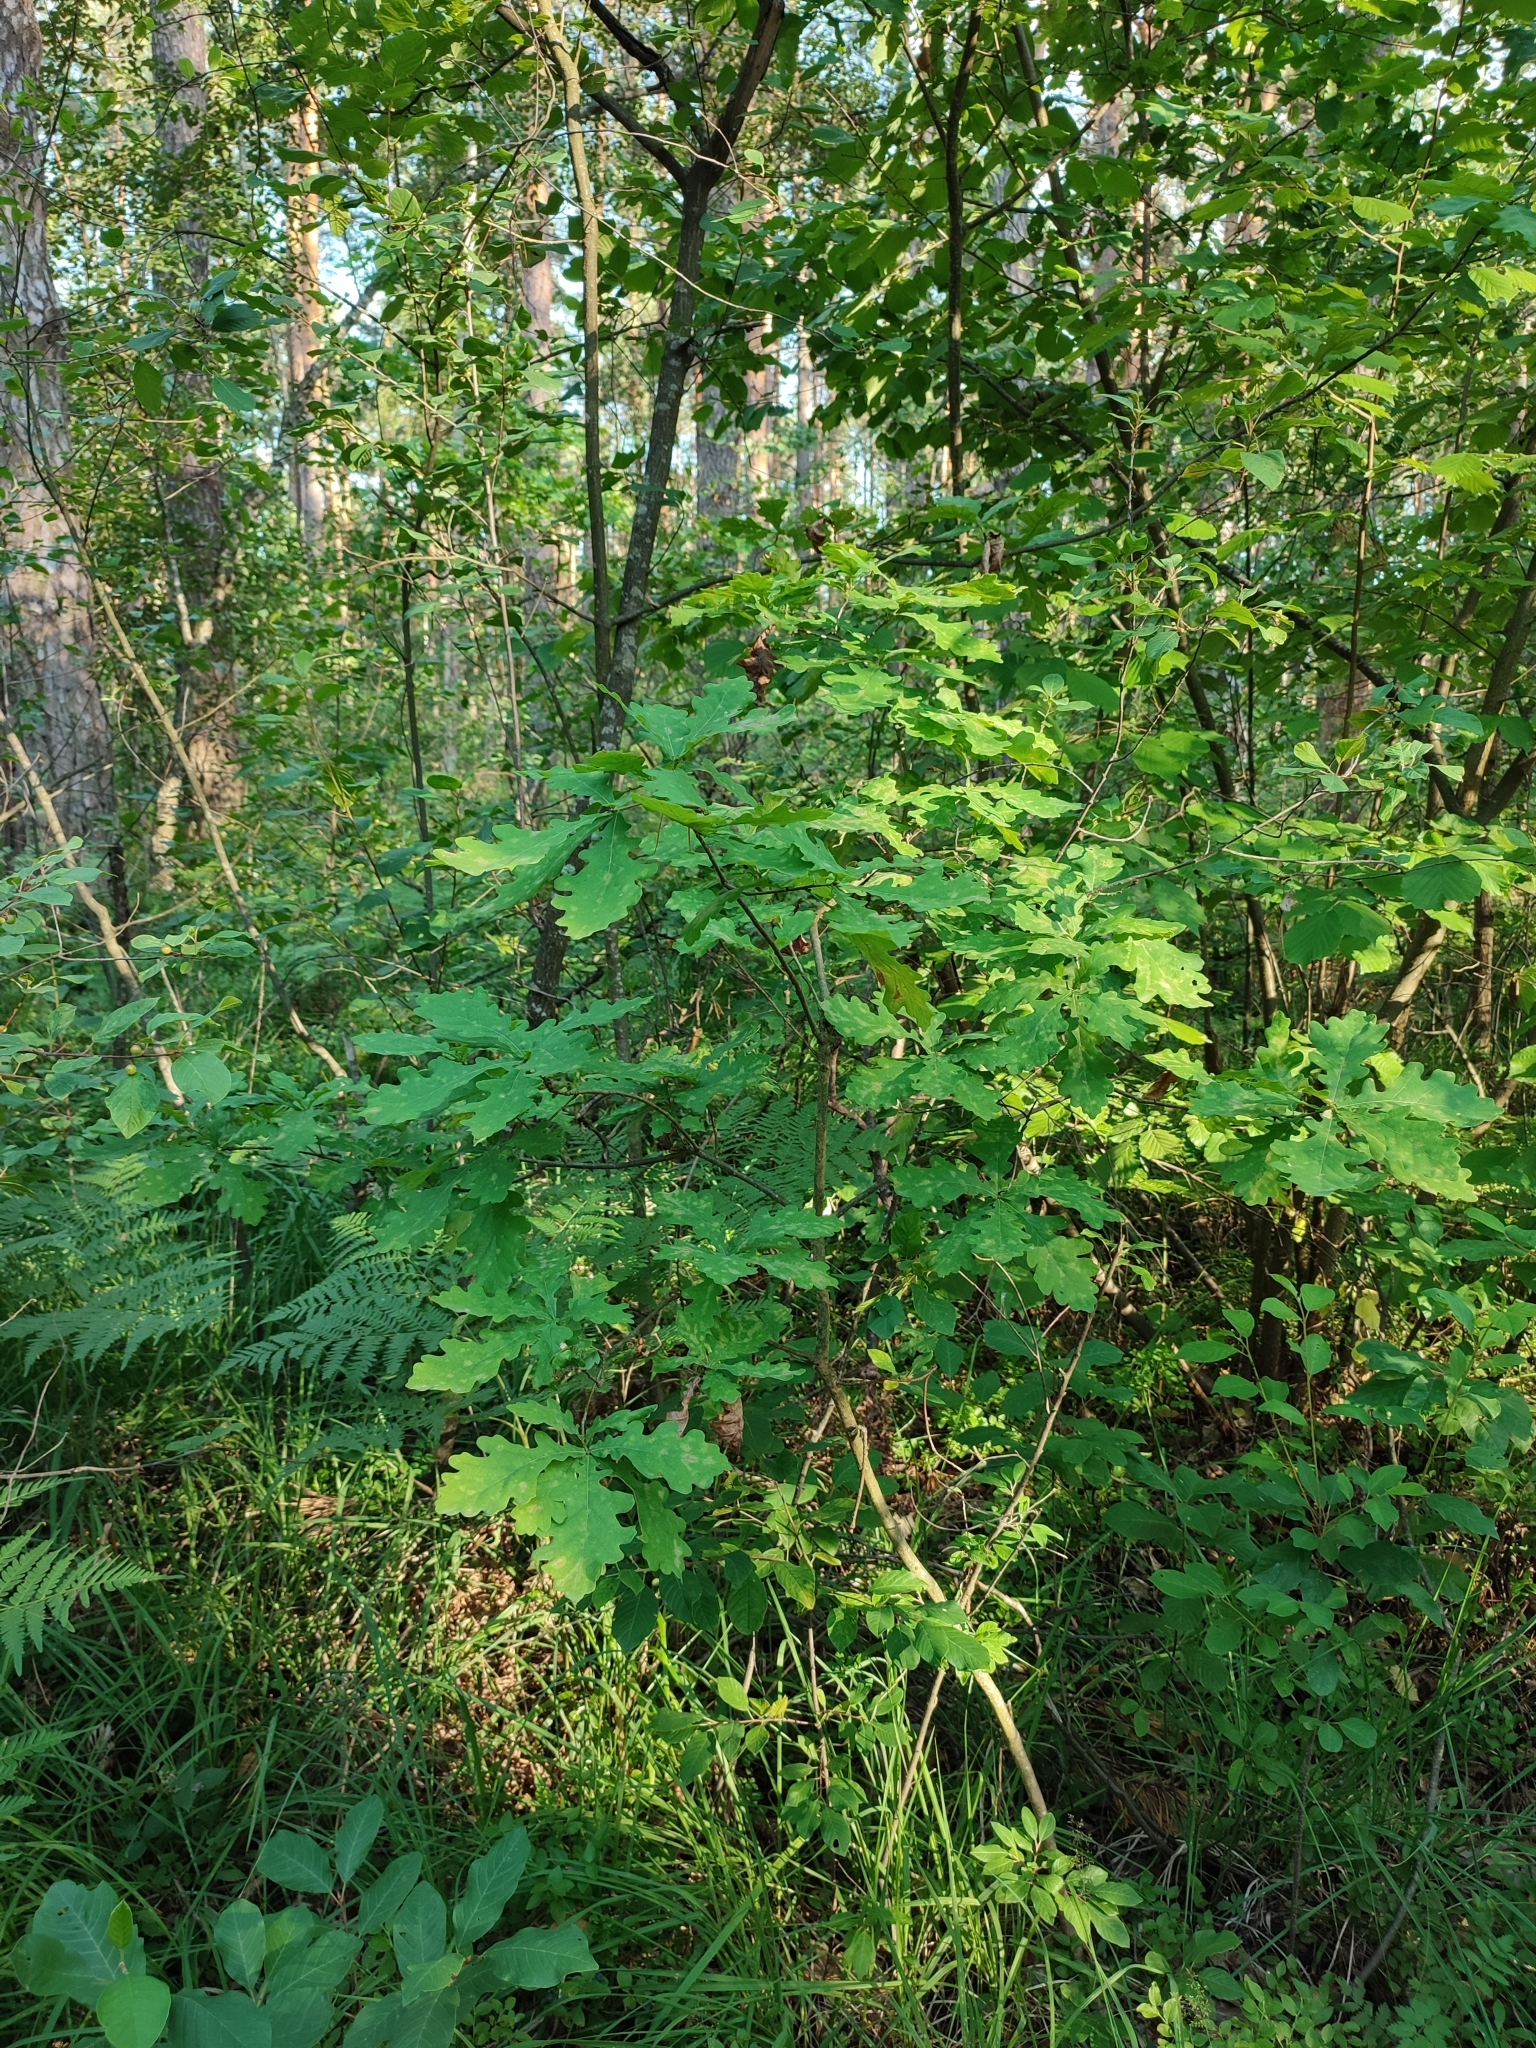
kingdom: Plantae
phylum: Tracheophyta
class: Magnoliopsida
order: Fagales
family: Fagaceae
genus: Quercus
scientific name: Quercus robur
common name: Pedunculate oak
